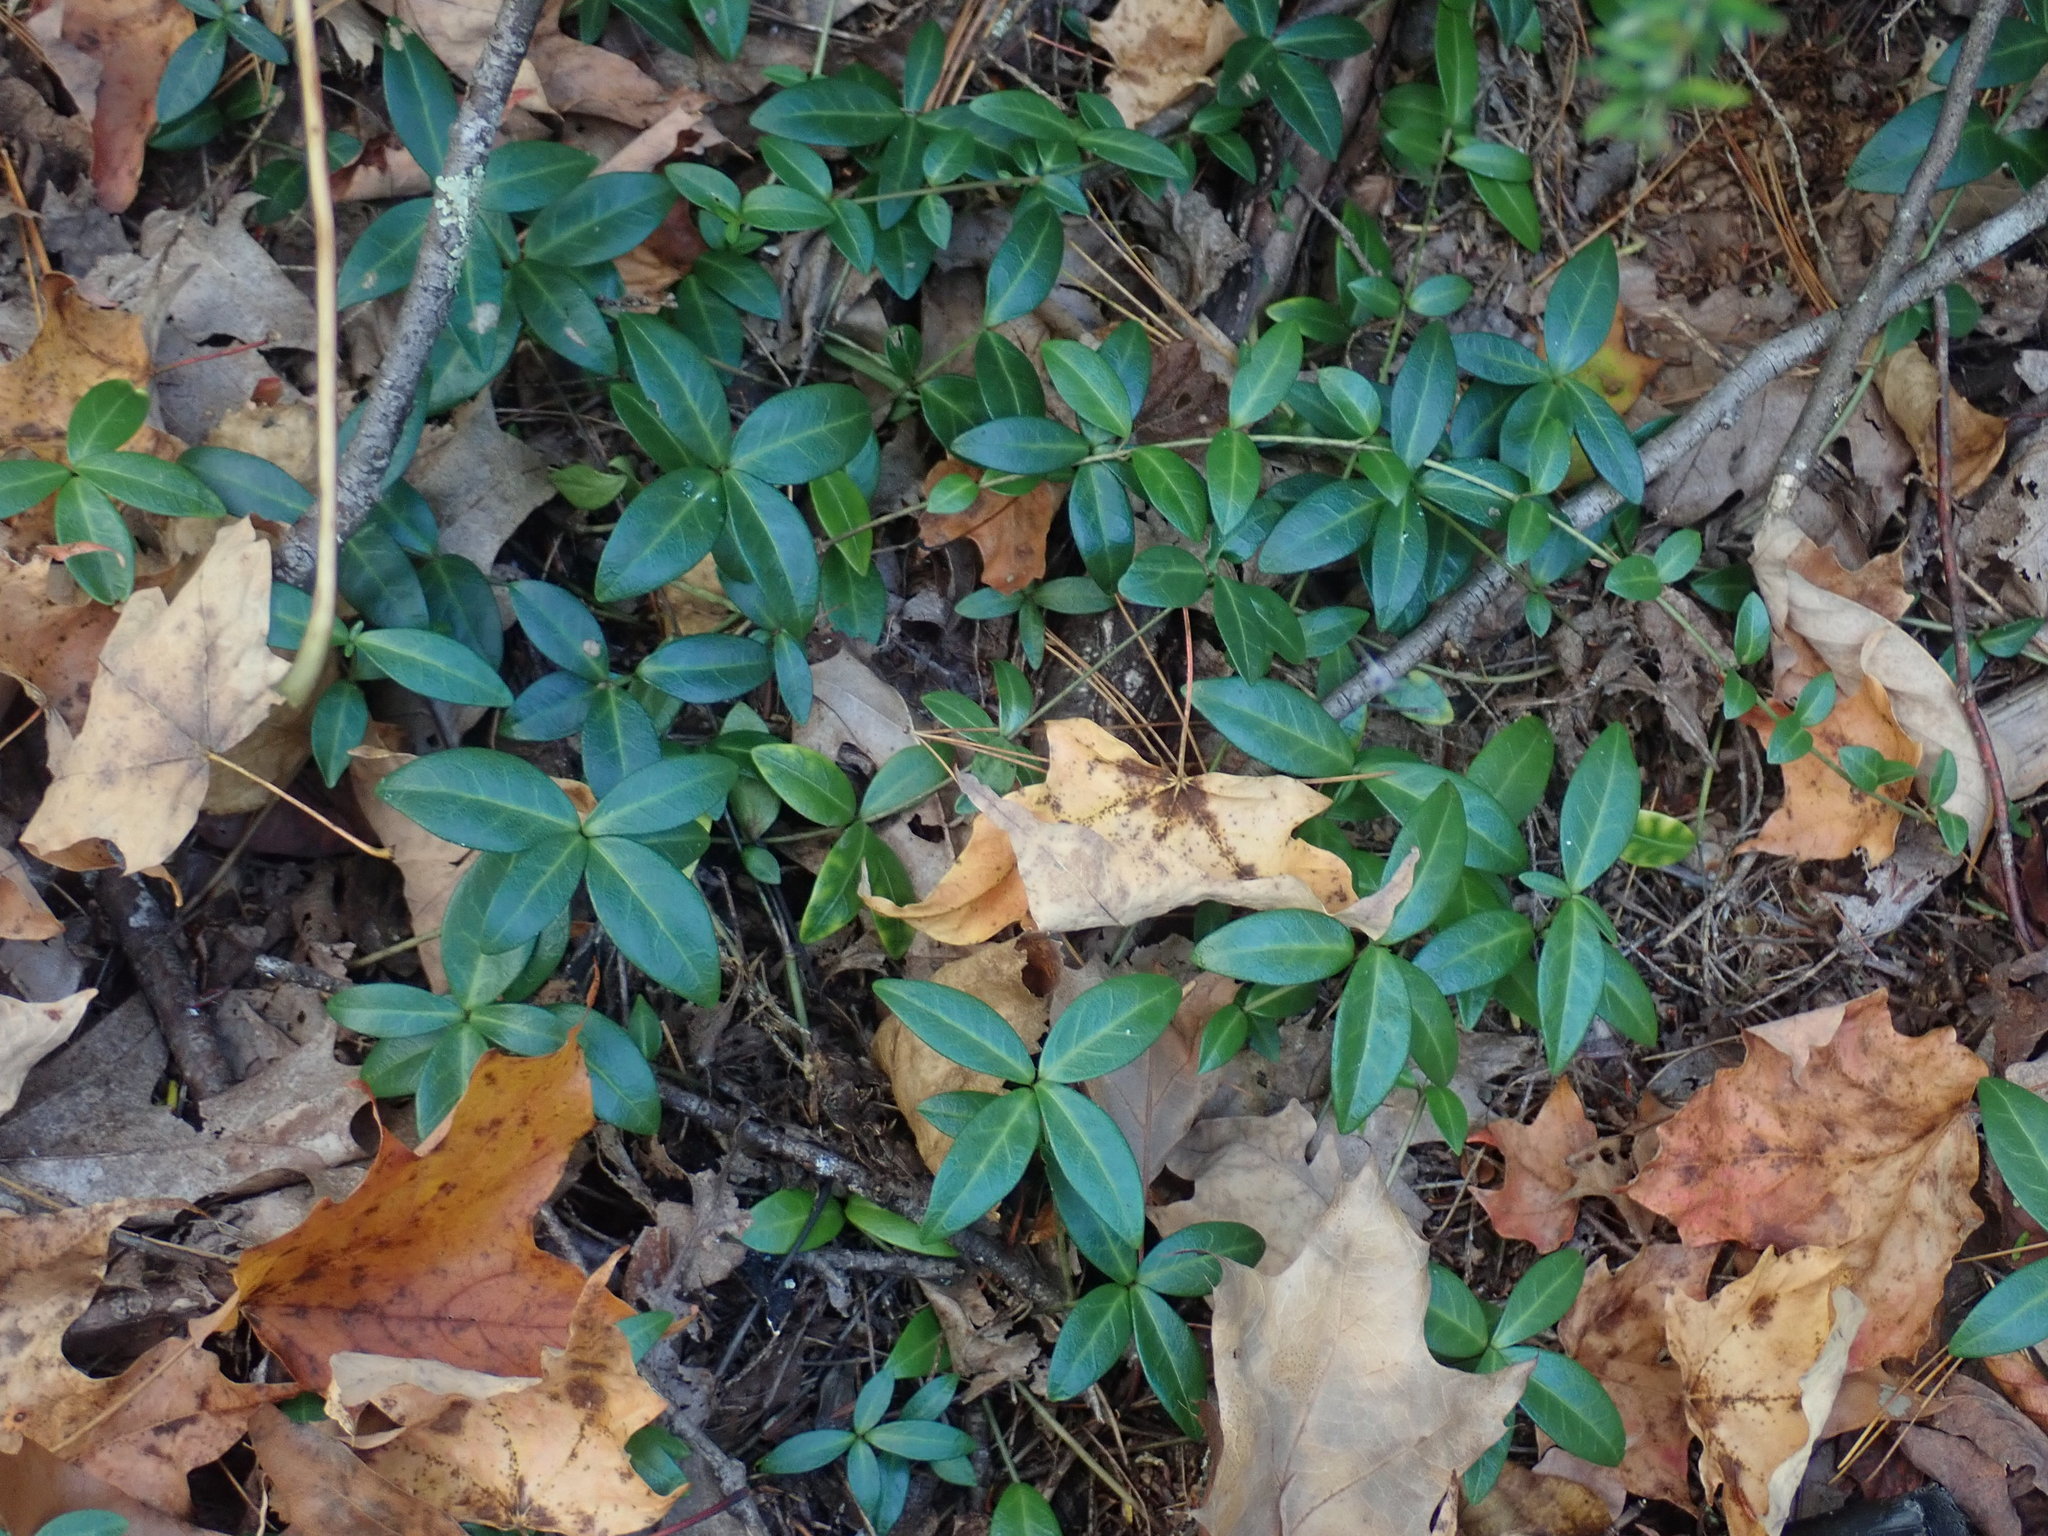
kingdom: Plantae
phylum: Tracheophyta
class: Magnoliopsida
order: Gentianales
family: Apocynaceae
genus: Vinca
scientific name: Vinca minor
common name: Lesser periwinkle
